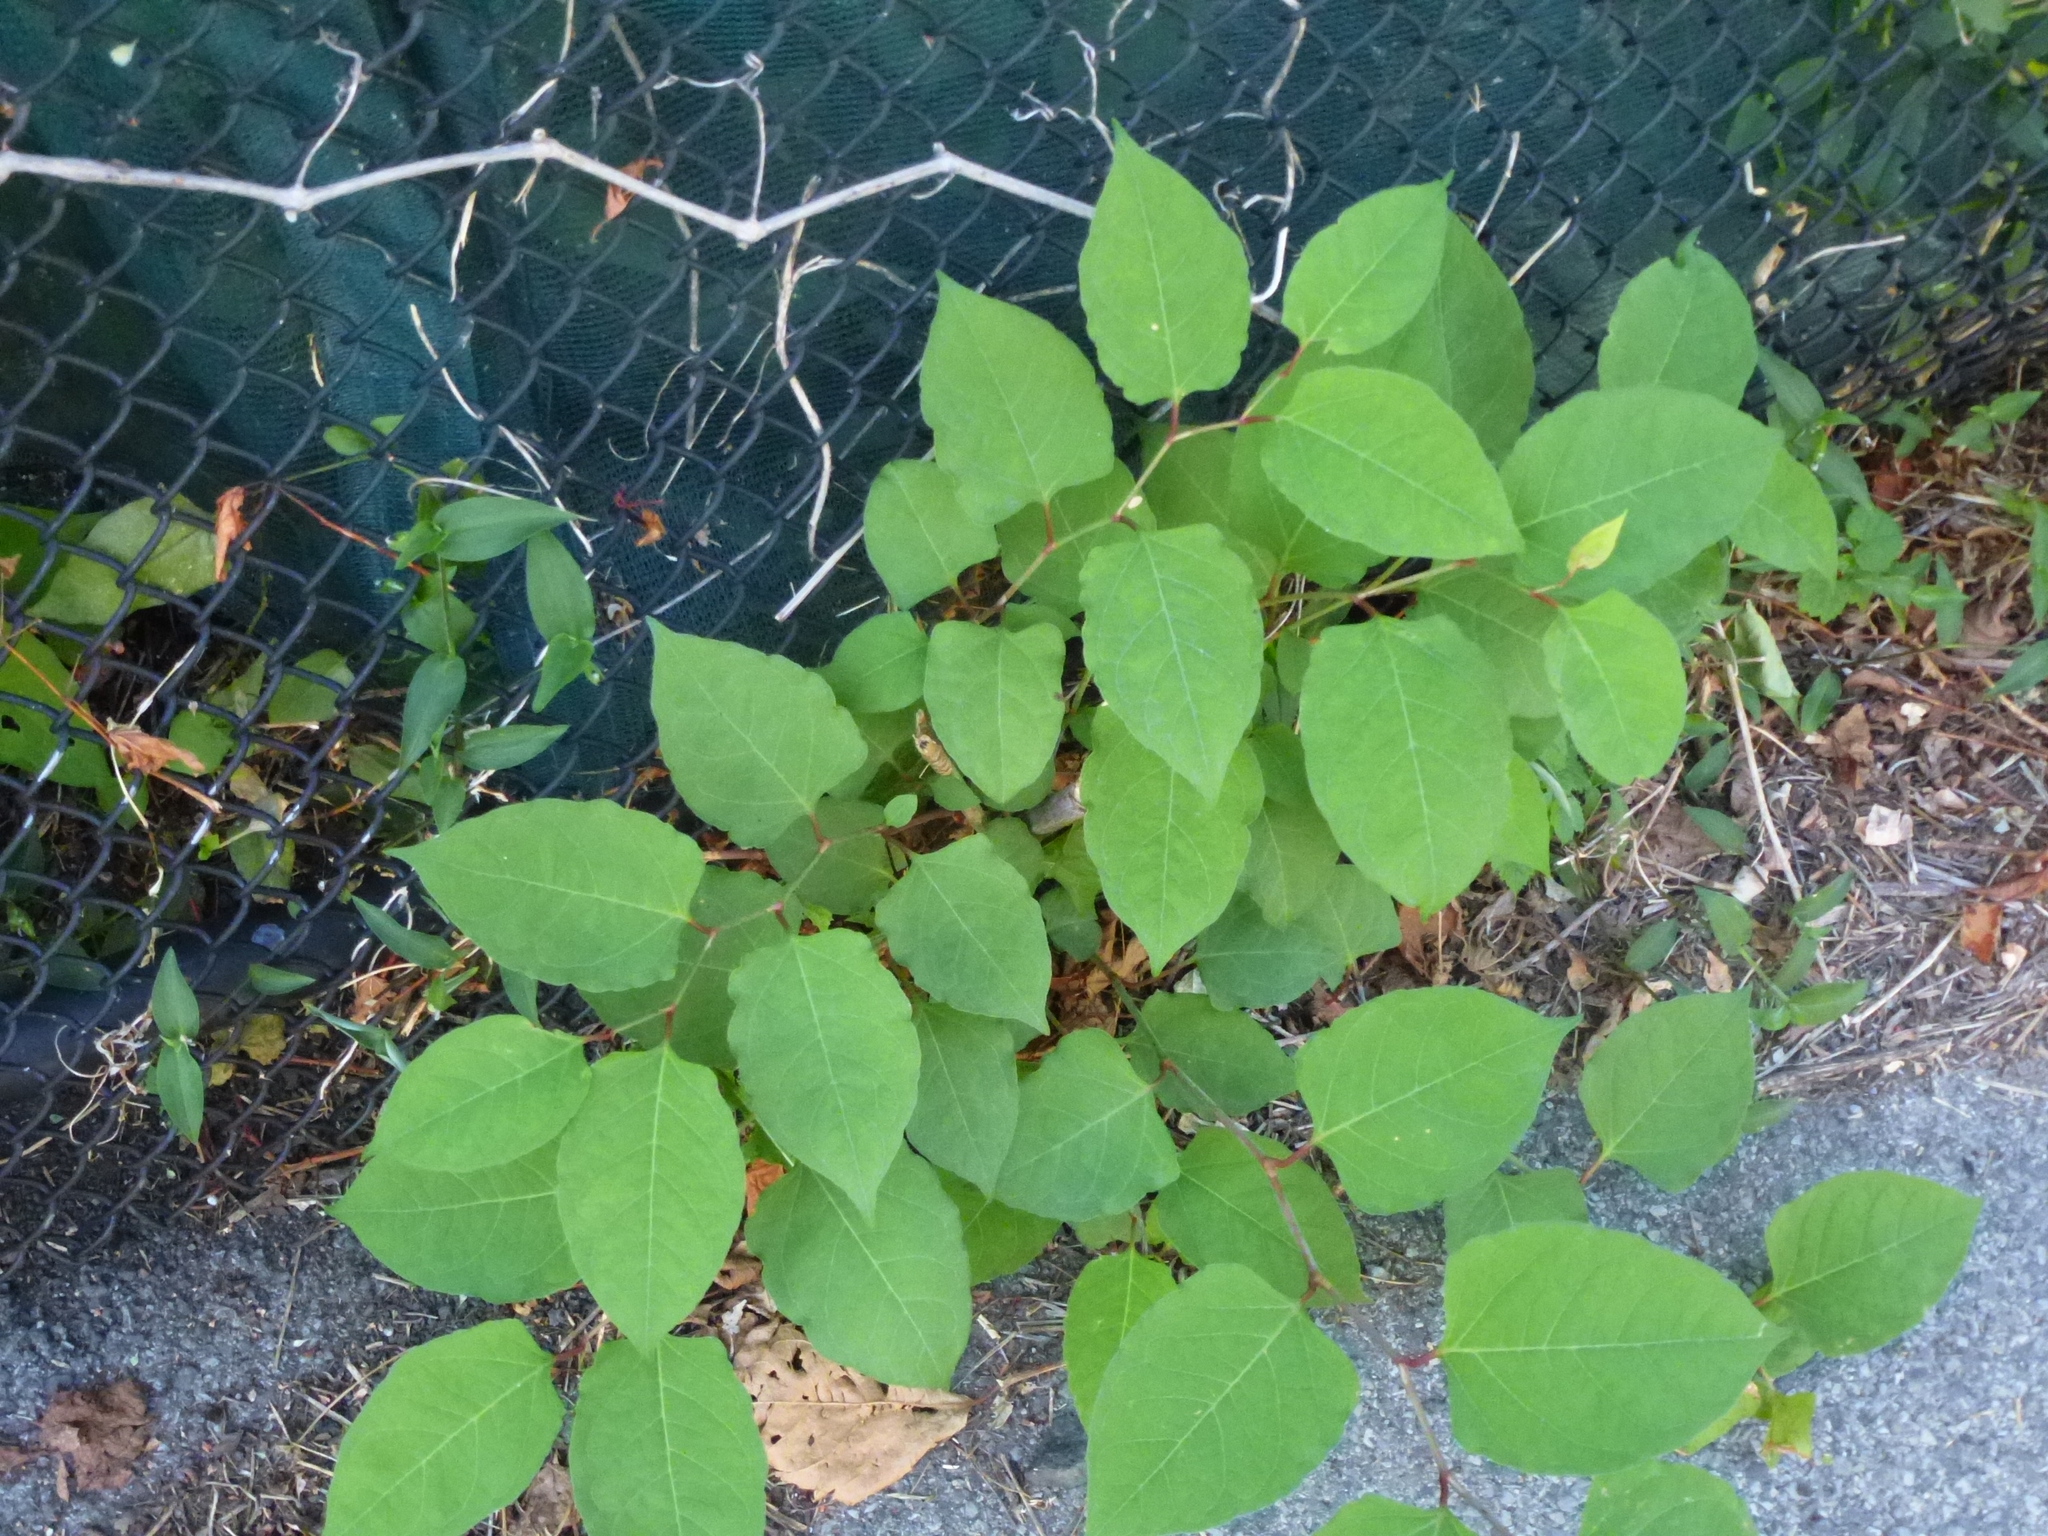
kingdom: Plantae
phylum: Tracheophyta
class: Magnoliopsida
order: Caryophyllales
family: Polygonaceae
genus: Reynoutria
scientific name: Reynoutria japonica
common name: Japanese knotweed
